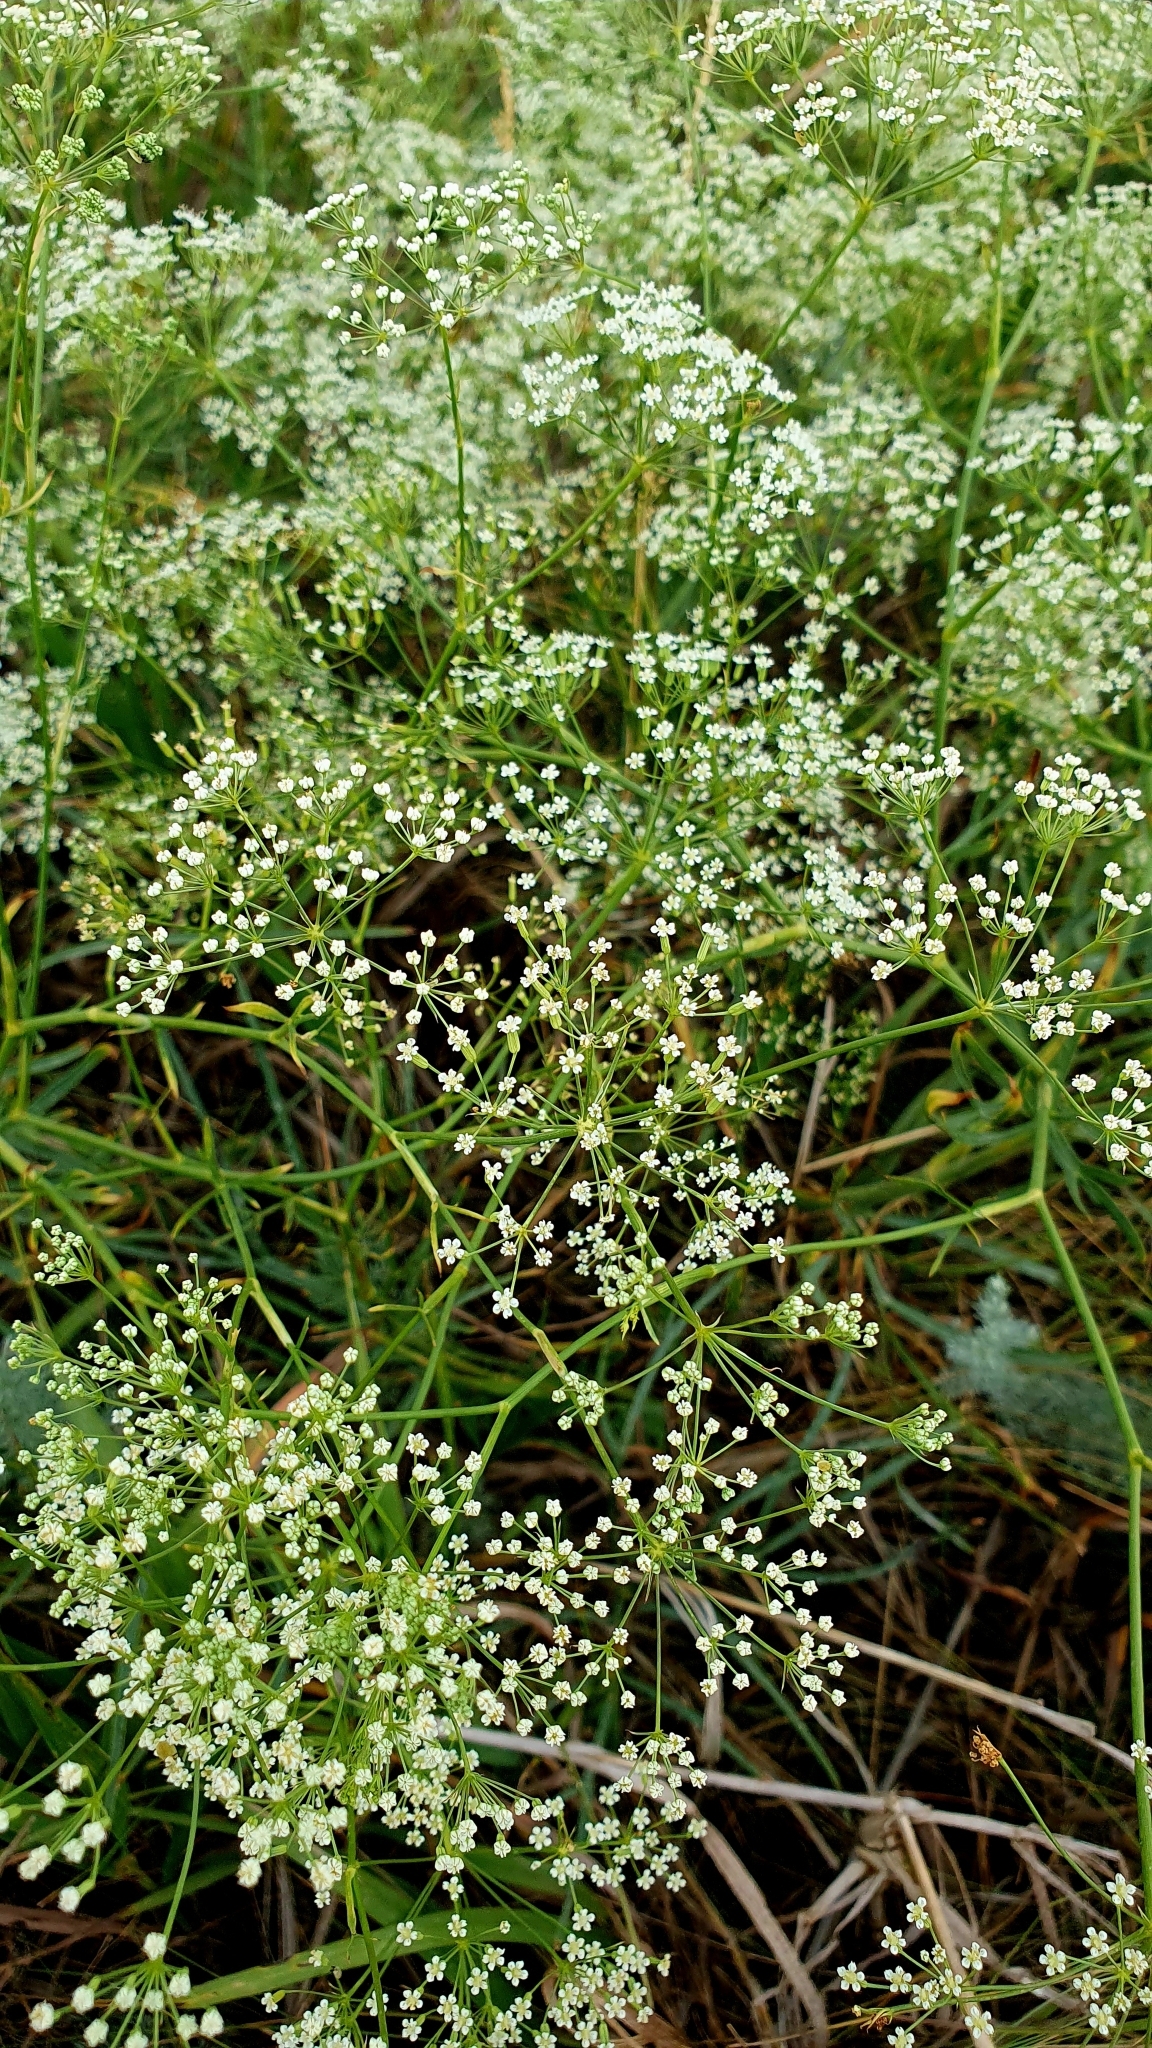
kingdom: Plantae
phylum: Tracheophyta
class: Magnoliopsida
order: Apiales
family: Apiaceae
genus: Falcaria
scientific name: Falcaria vulgaris
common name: Longleaf
